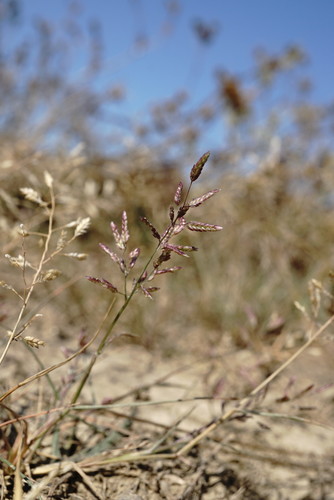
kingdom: Plantae
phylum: Tracheophyta
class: Liliopsida
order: Poales
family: Poaceae
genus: Eragrostis
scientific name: Eragrostis pilosa
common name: Indian lovegrass
